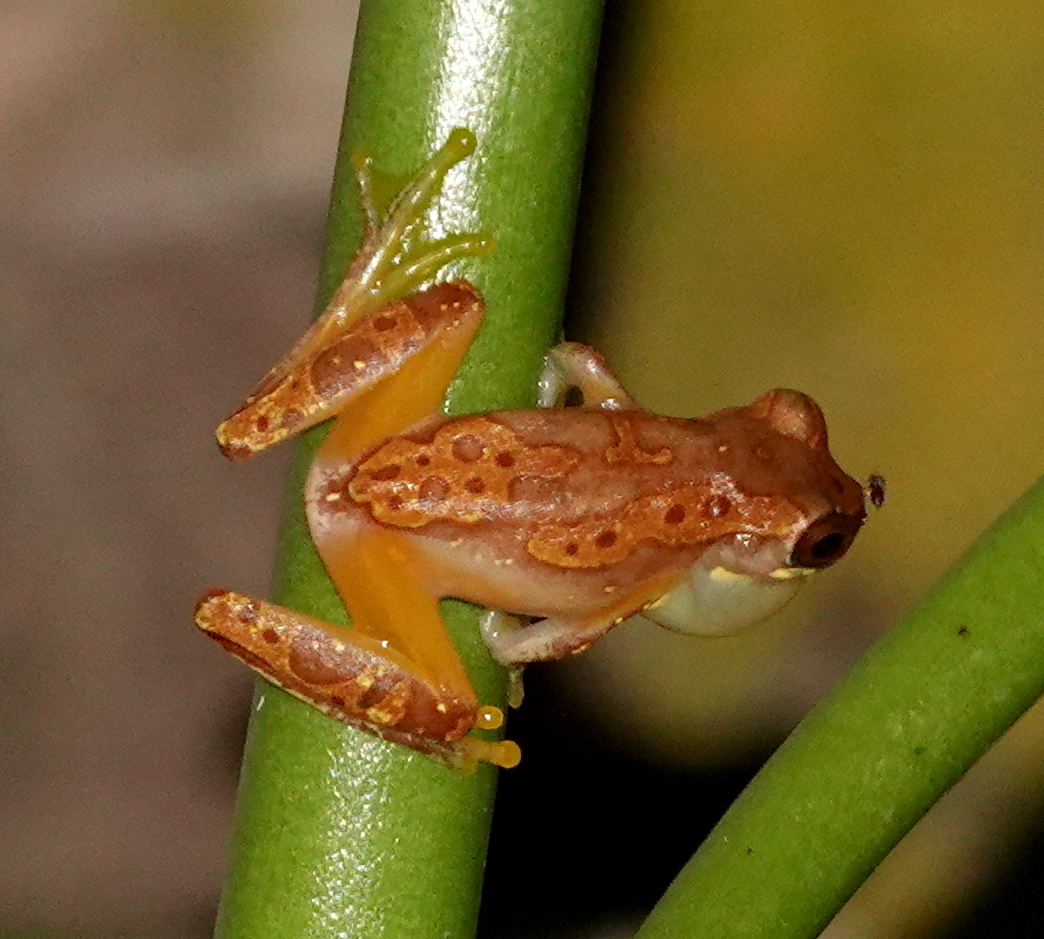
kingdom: Animalia
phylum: Chordata
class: Amphibia
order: Anura
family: Hylidae
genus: Dendropsophus
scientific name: Dendropsophus ebraccatus
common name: Hourglass treefrog
